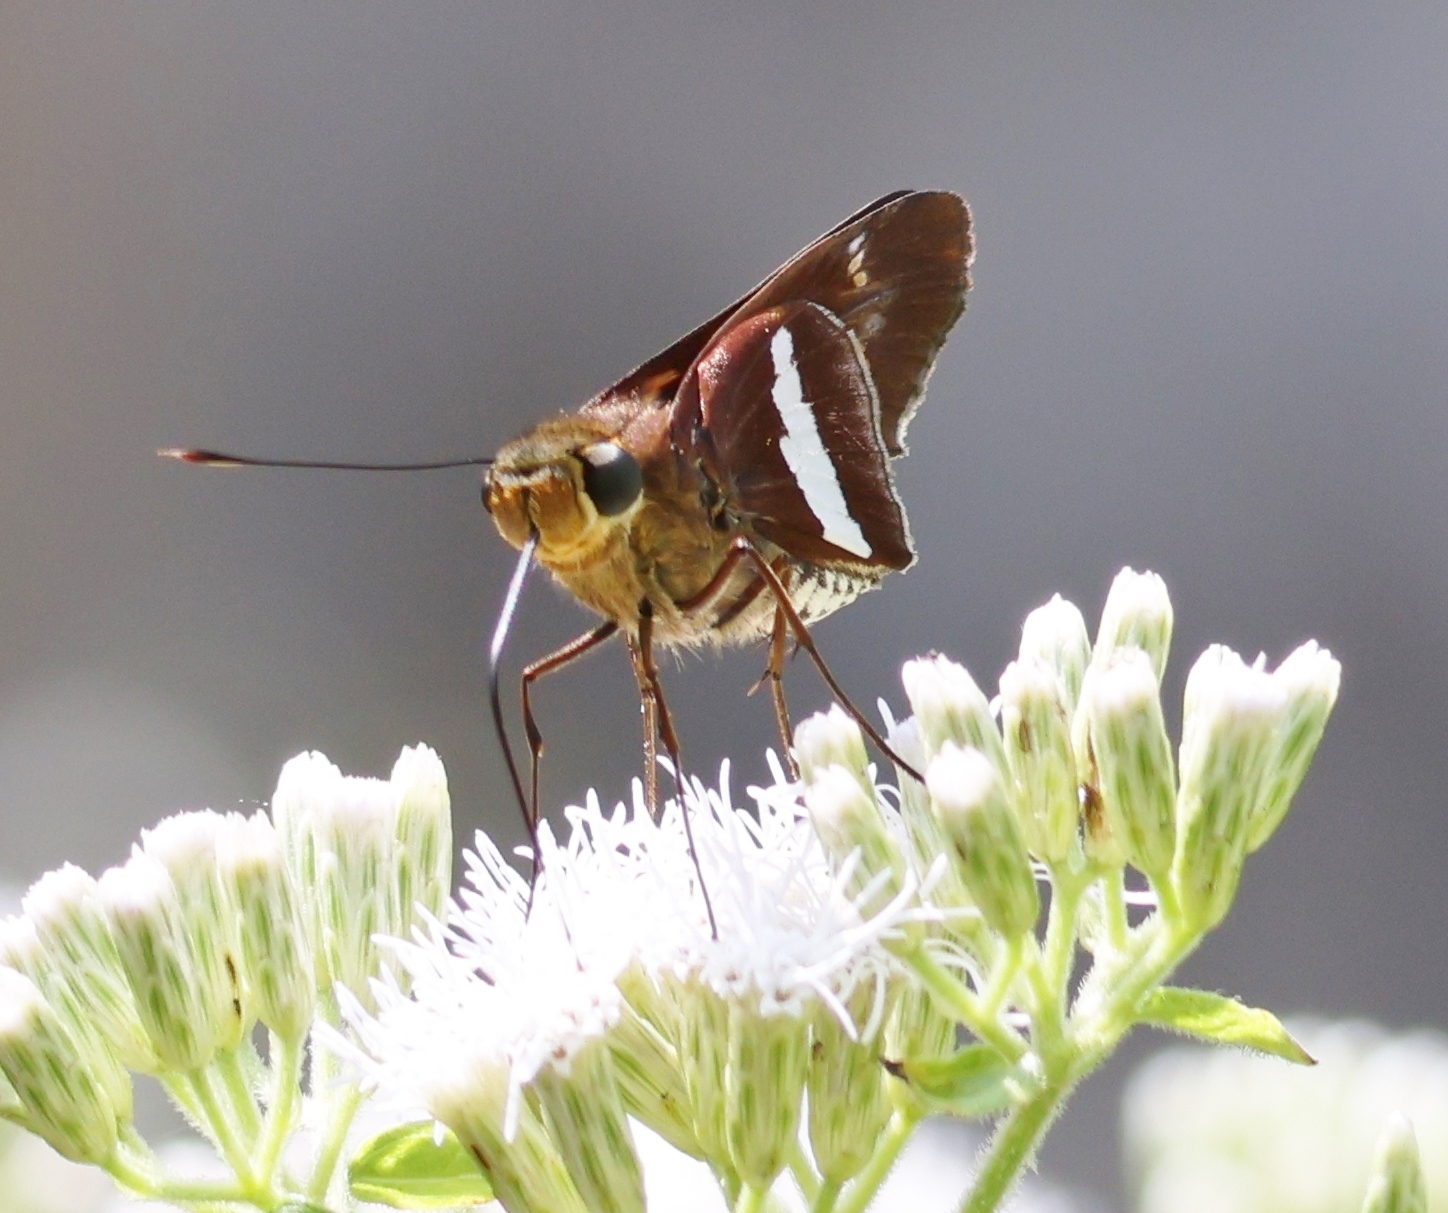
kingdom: Animalia
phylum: Arthropoda
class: Insecta
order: Lepidoptera
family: Hesperiidae
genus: Panoquina
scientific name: Panoquina evadnes
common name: Evadnes skipper
